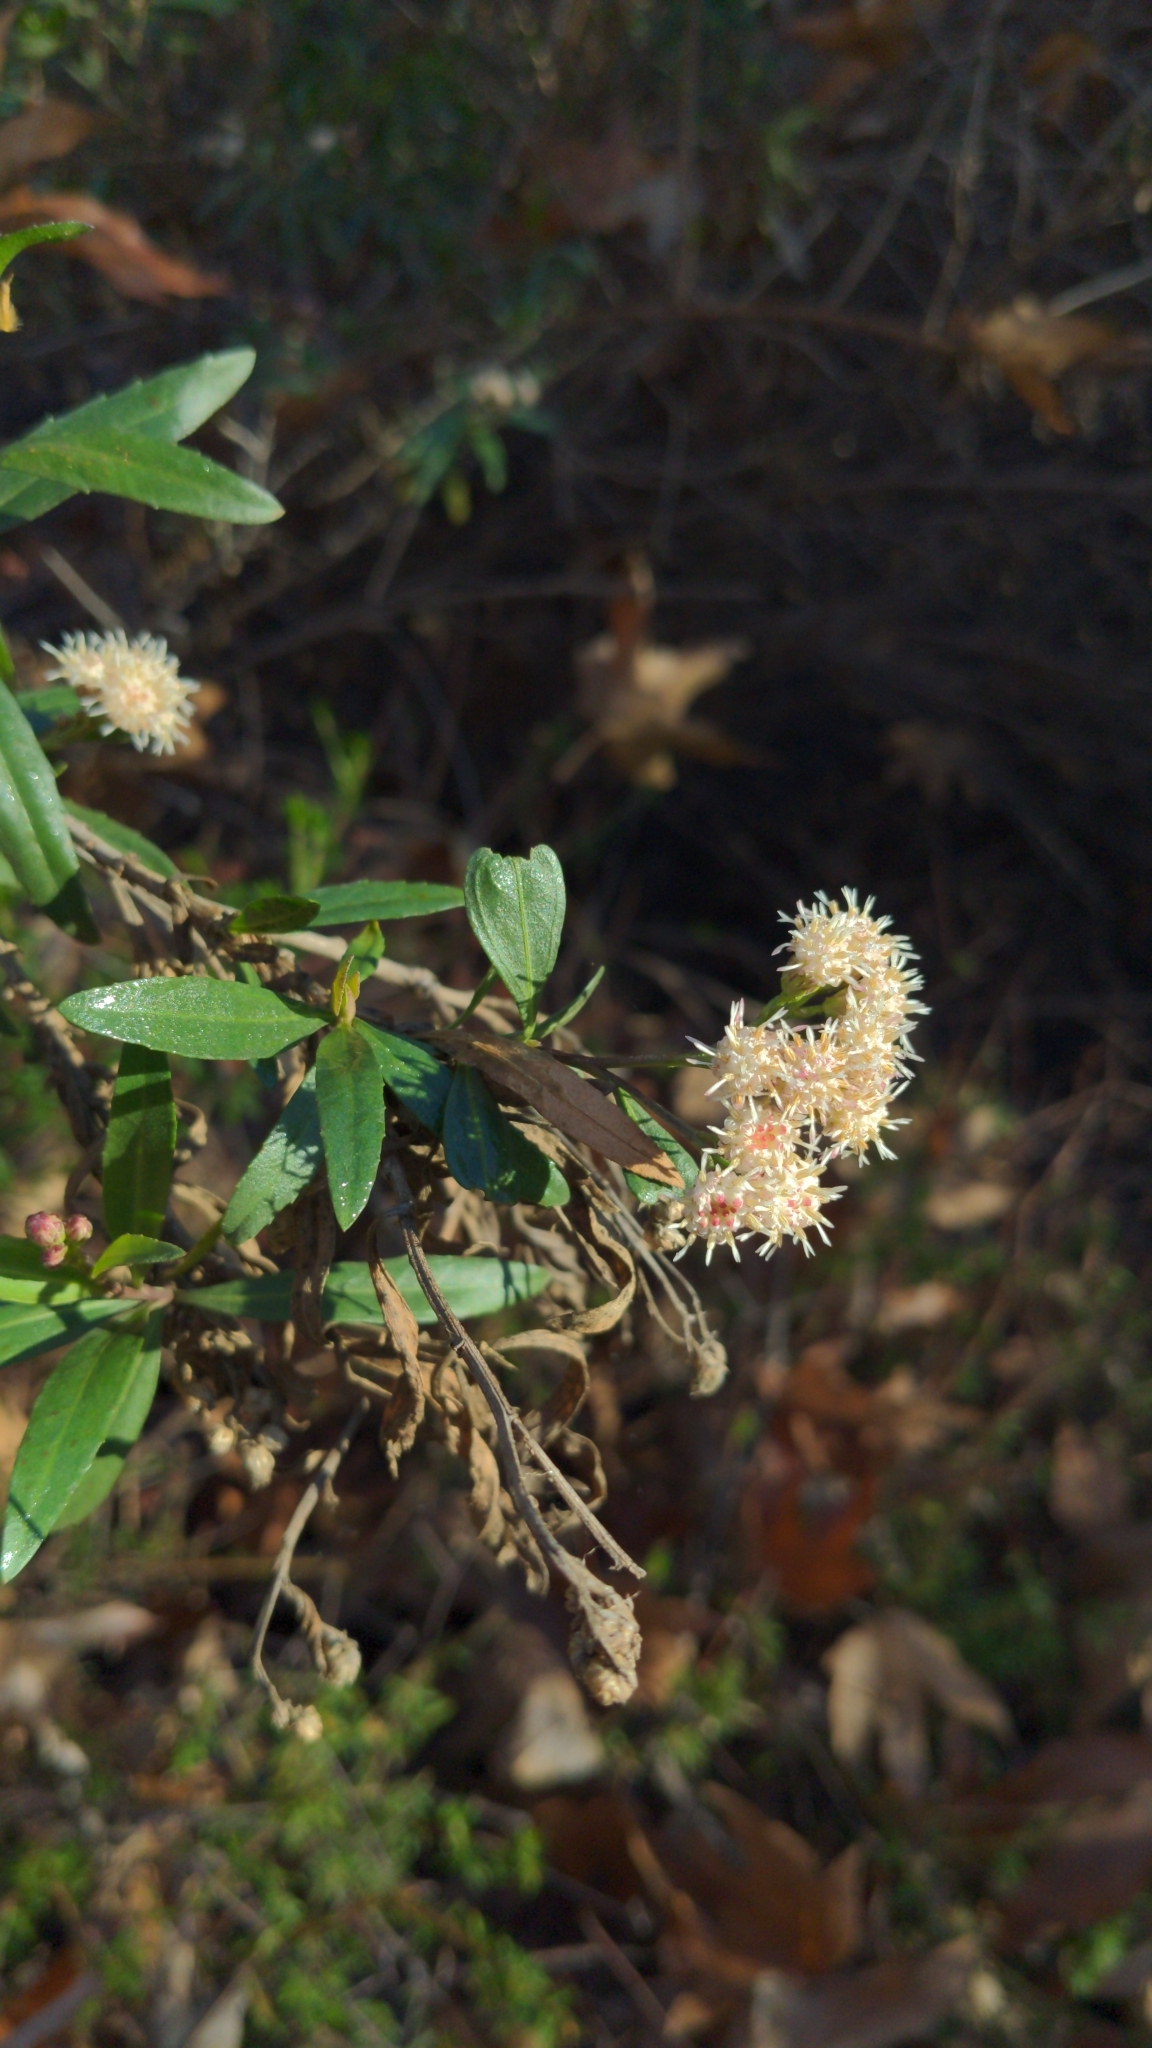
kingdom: Plantae
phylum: Tracheophyta
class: Magnoliopsida
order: Asterales
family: Asteraceae
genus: Baccharis
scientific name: Baccharis salicifolia
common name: Sticky baccharis
